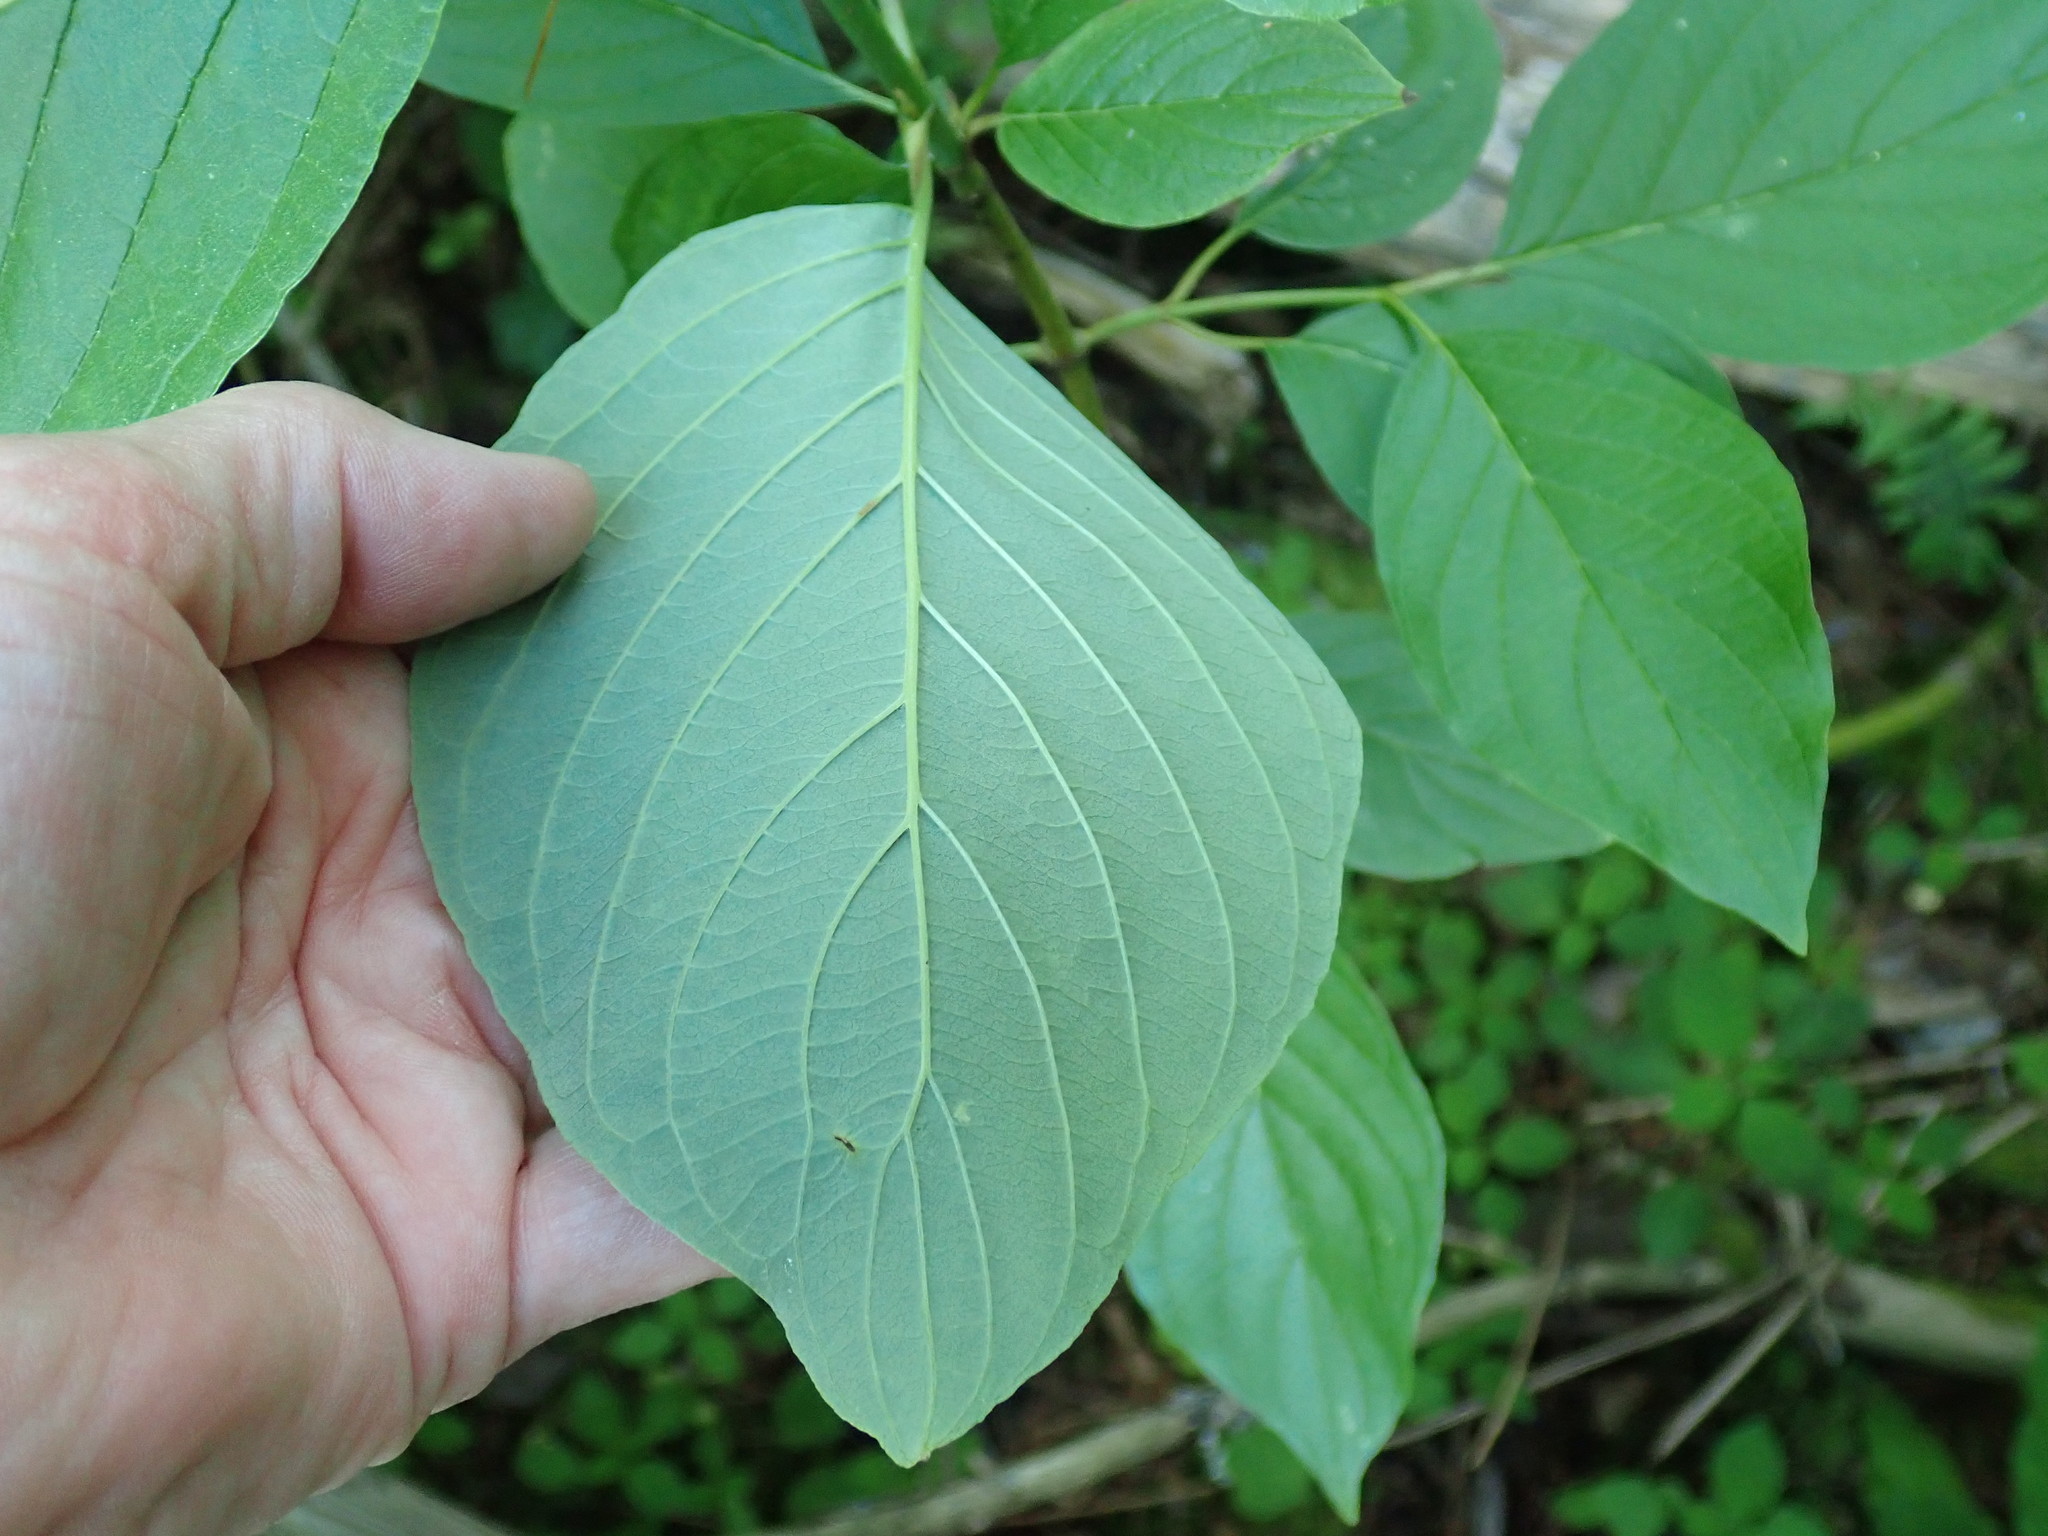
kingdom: Plantae
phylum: Tracheophyta
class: Magnoliopsida
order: Cornales
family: Cornaceae
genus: Cornus
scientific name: Cornus rugosa
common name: Round-leaf dogwood
